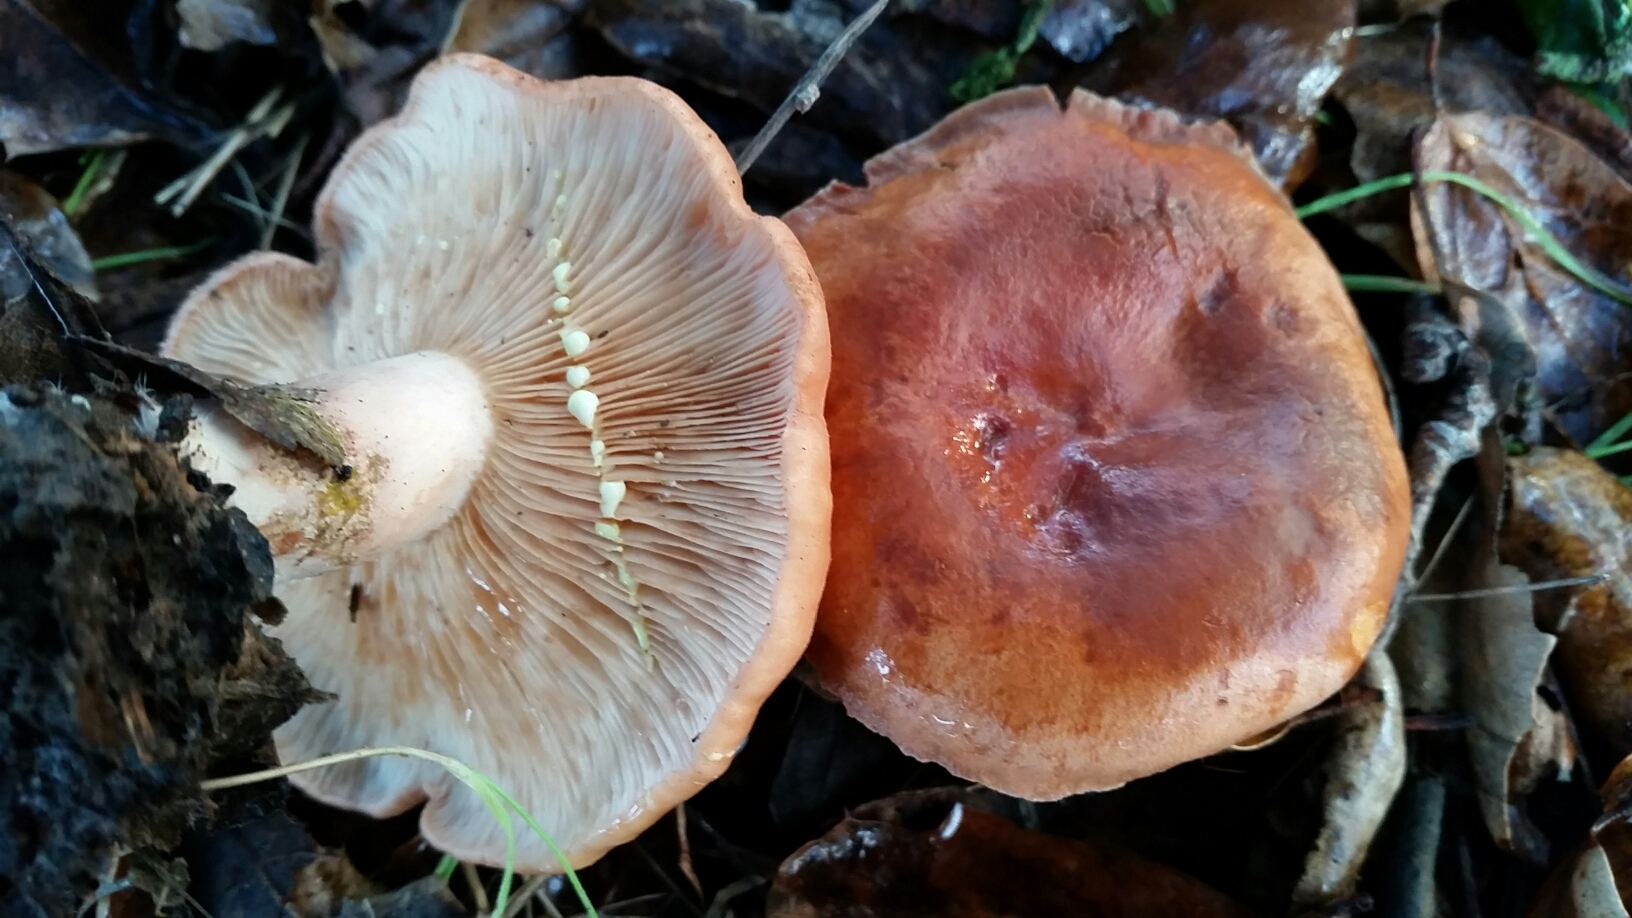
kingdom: Fungi
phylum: Basidiomycota
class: Agaricomycetes
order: Russulales
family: Russulaceae
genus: Lactarius
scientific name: Lactarius xanthogalactus
